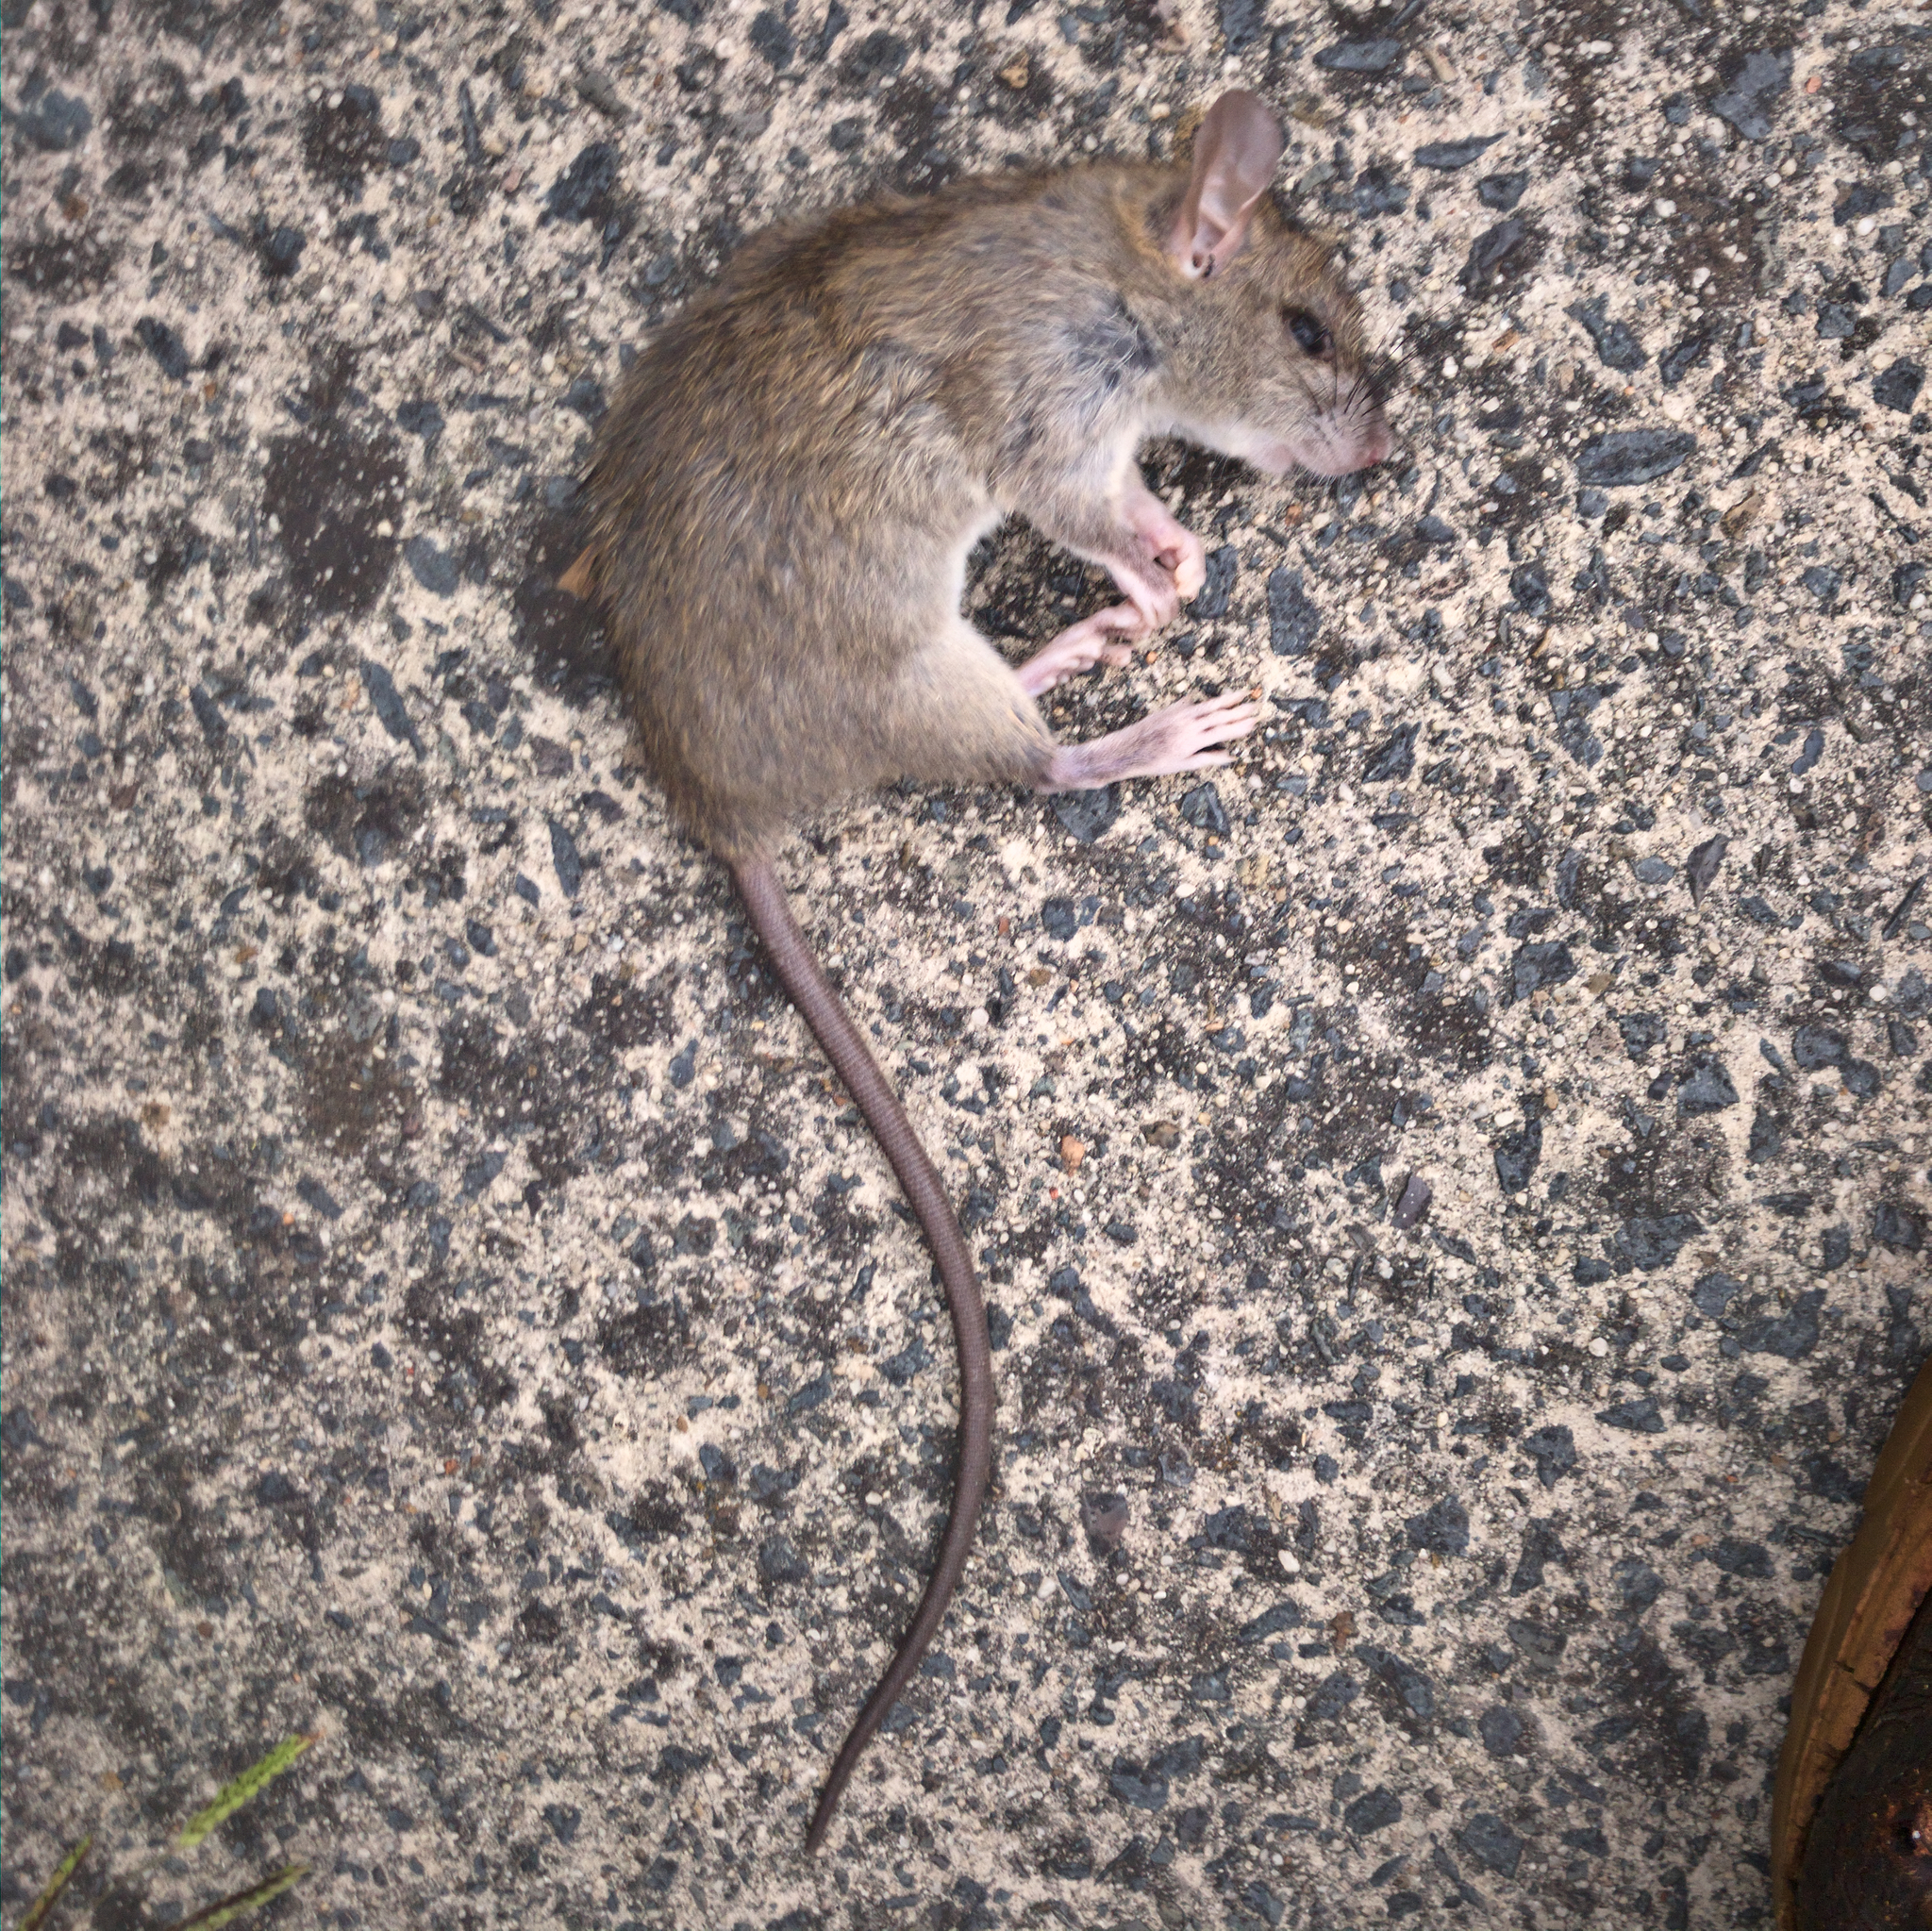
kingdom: Animalia
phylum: Chordata
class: Mammalia
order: Rodentia
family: Muridae
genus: Rattus
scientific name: Rattus rattus
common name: Black rat
